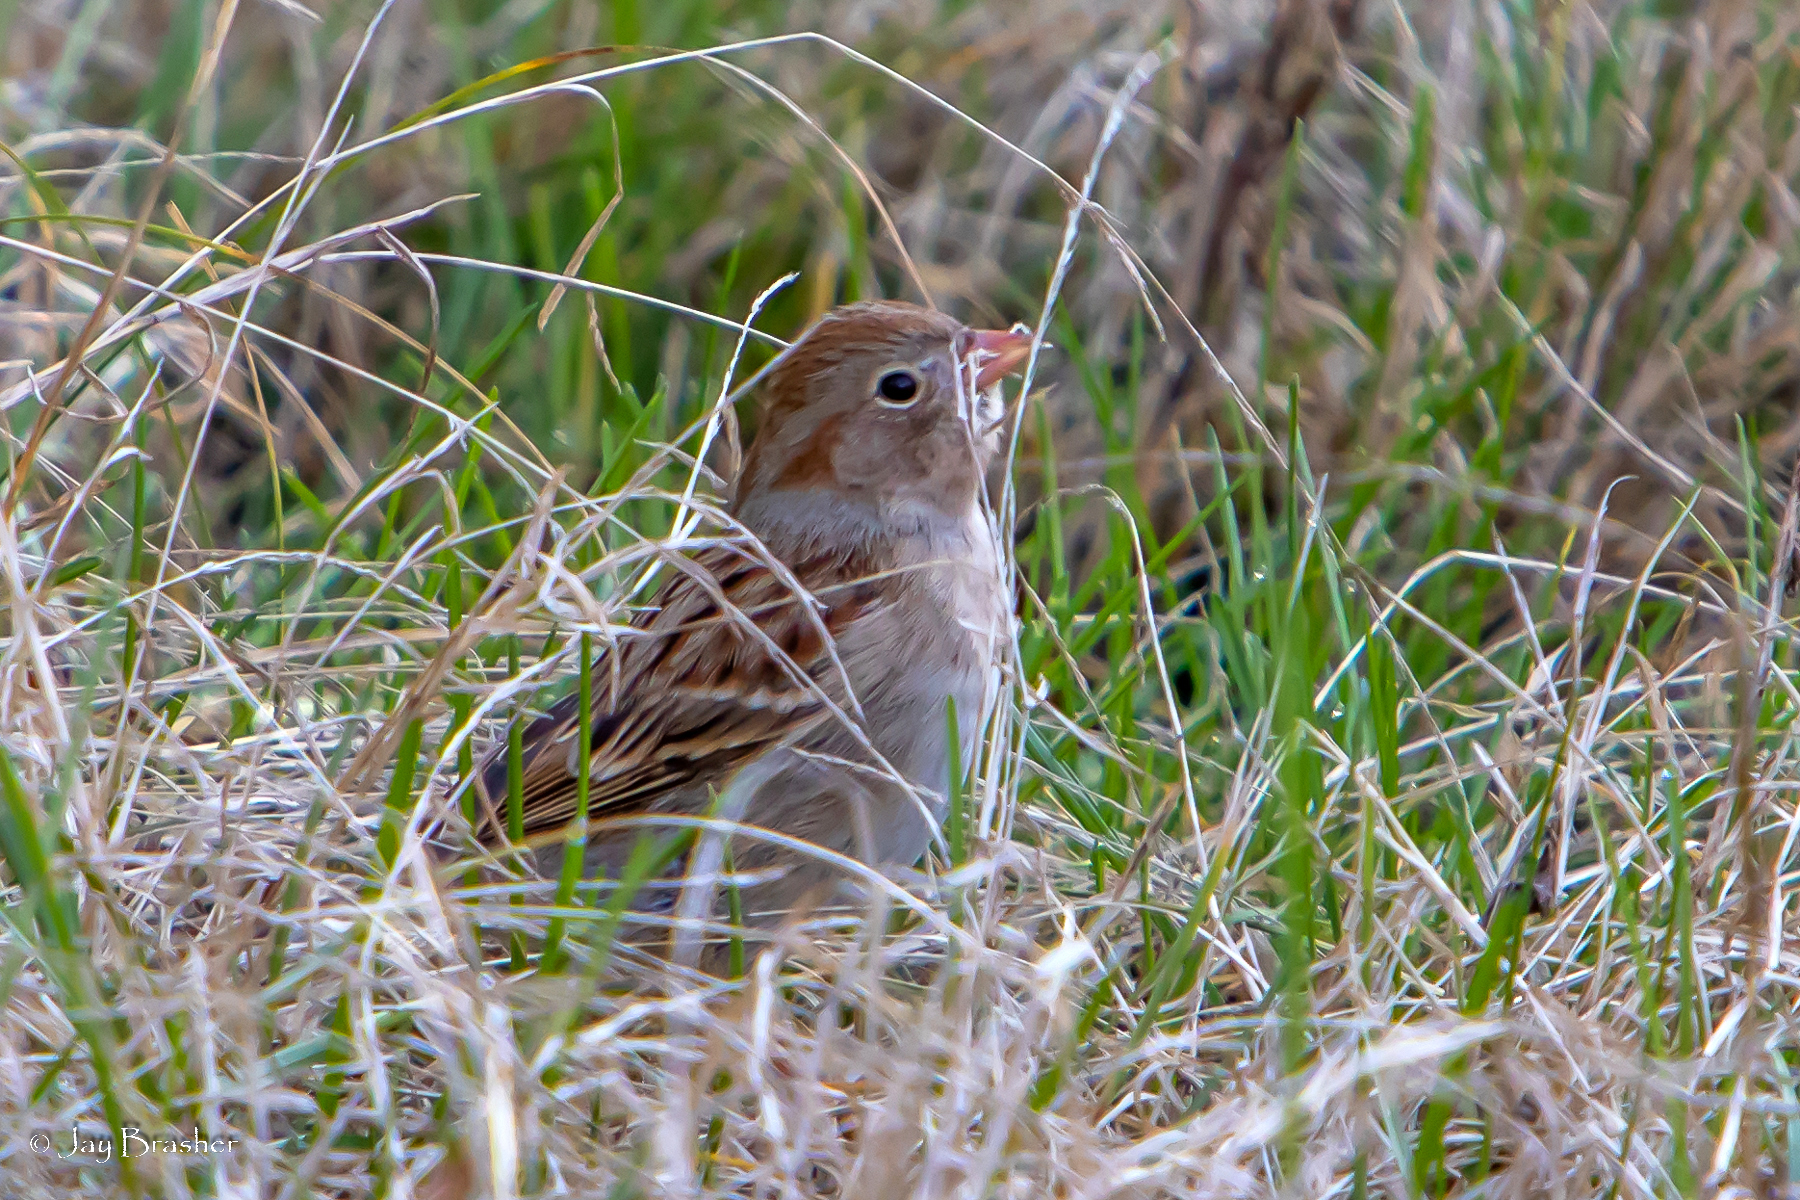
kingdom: Animalia
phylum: Chordata
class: Aves
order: Passeriformes
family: Passerellidae
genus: Spizella
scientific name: Spizella pusilla
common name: Field sparrow
